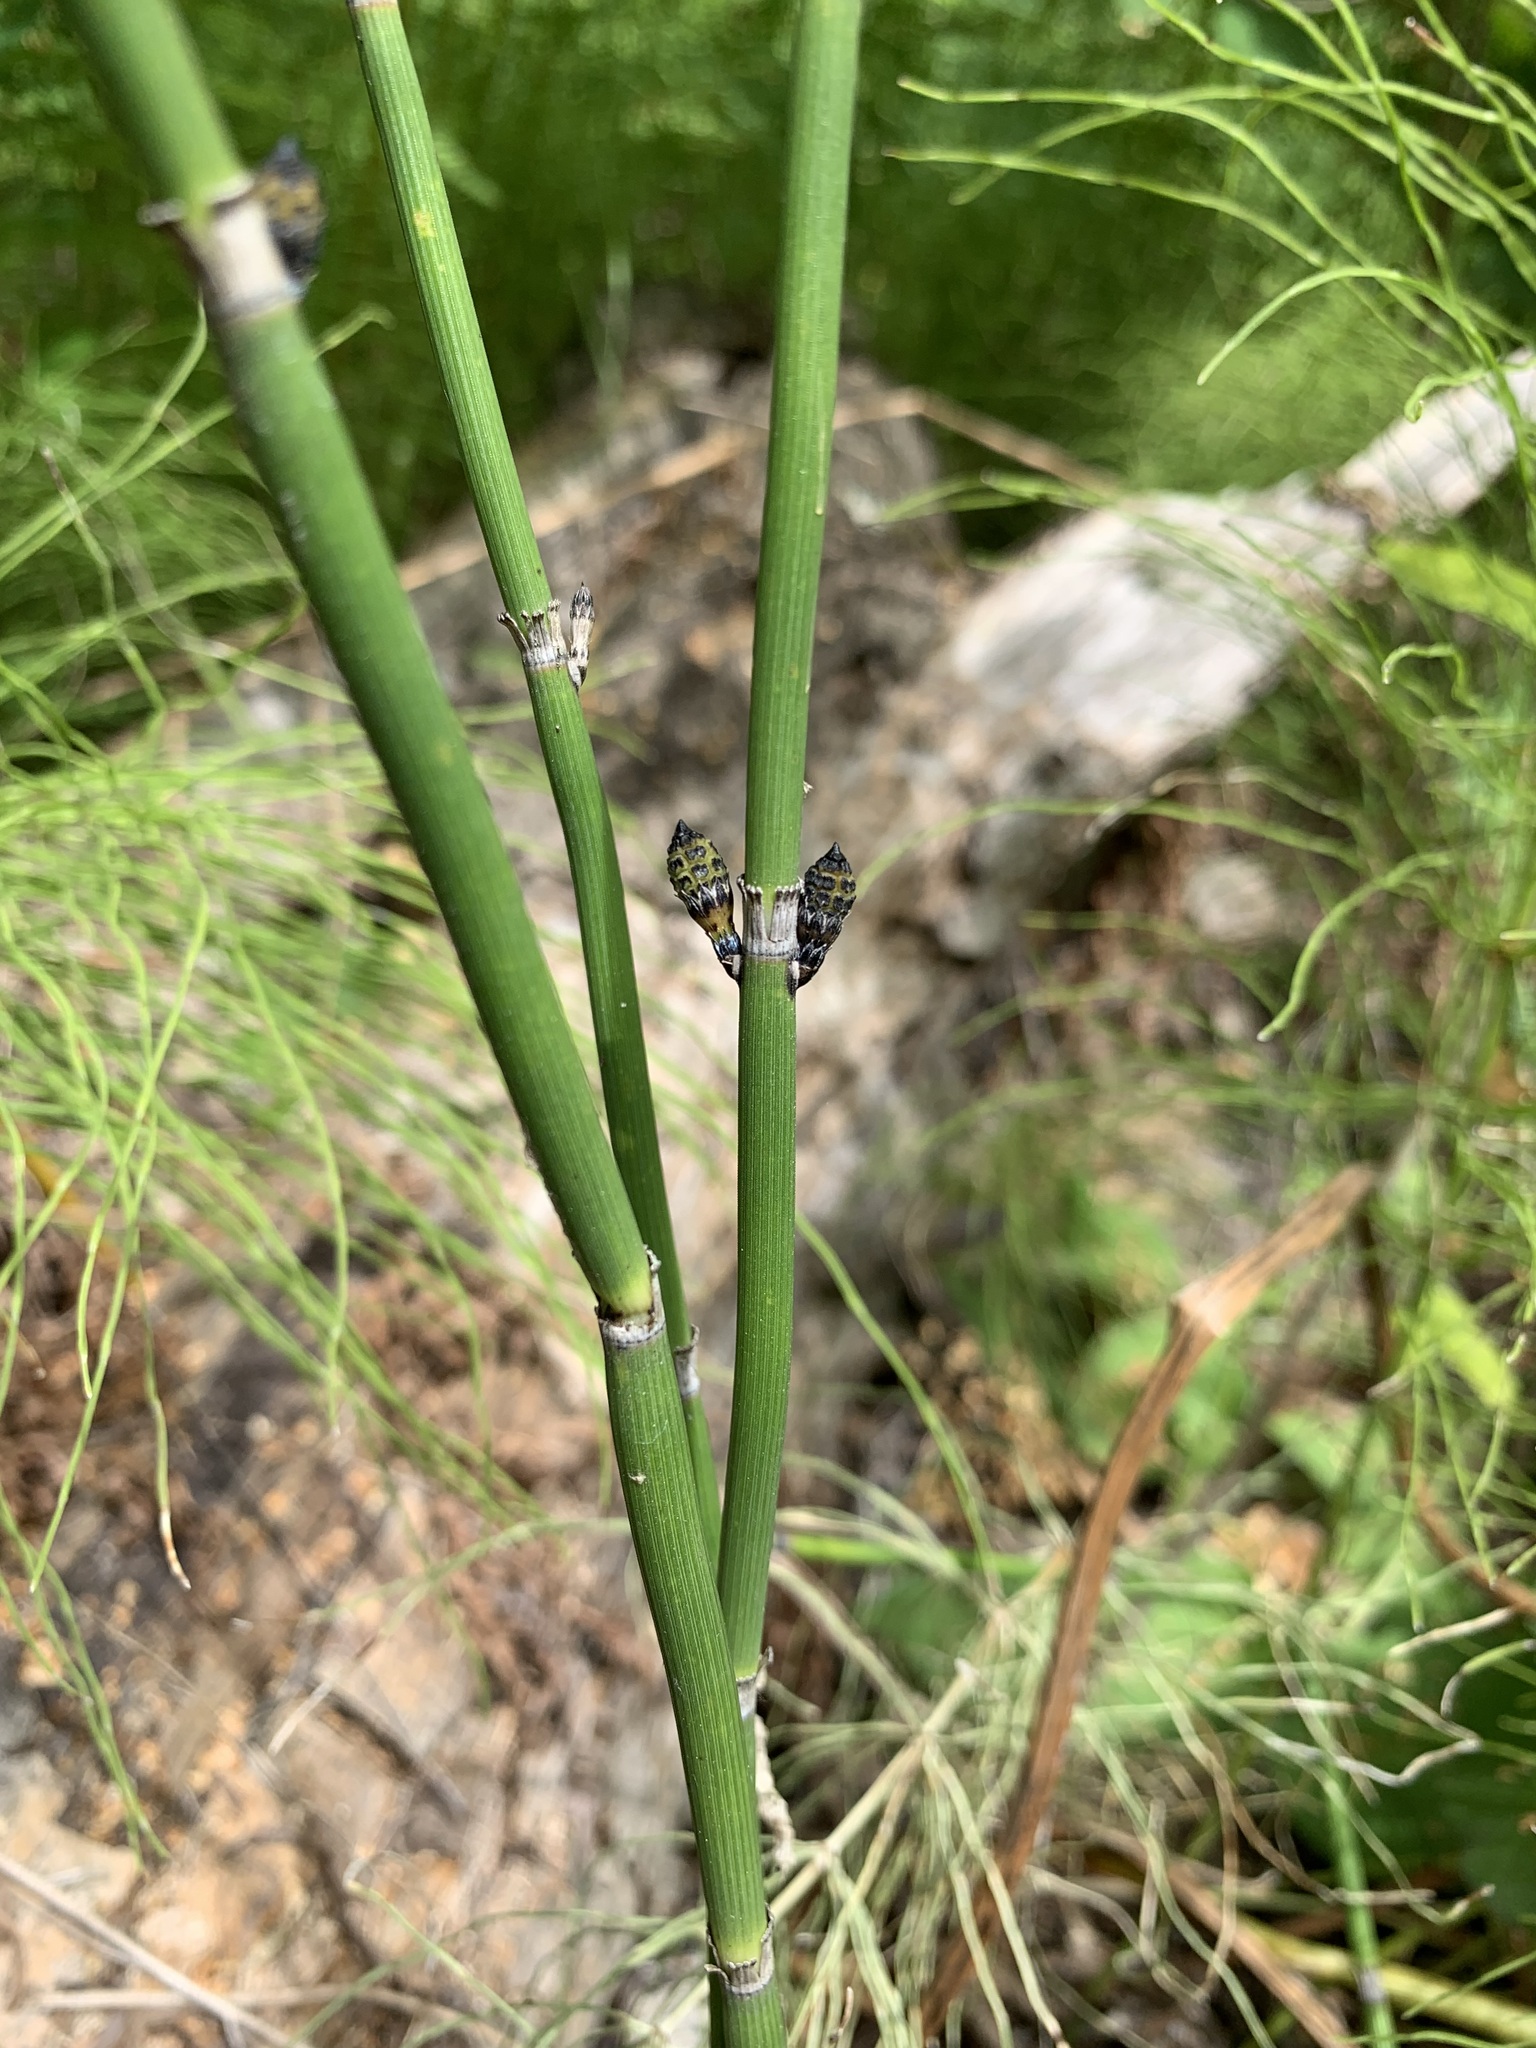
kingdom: Plantae
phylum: Tracheophyta
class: Polypodiopsida
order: Equisetales
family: Equisetaceae
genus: Equisetum
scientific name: Equisetum hyemale
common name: Rough horsetail
